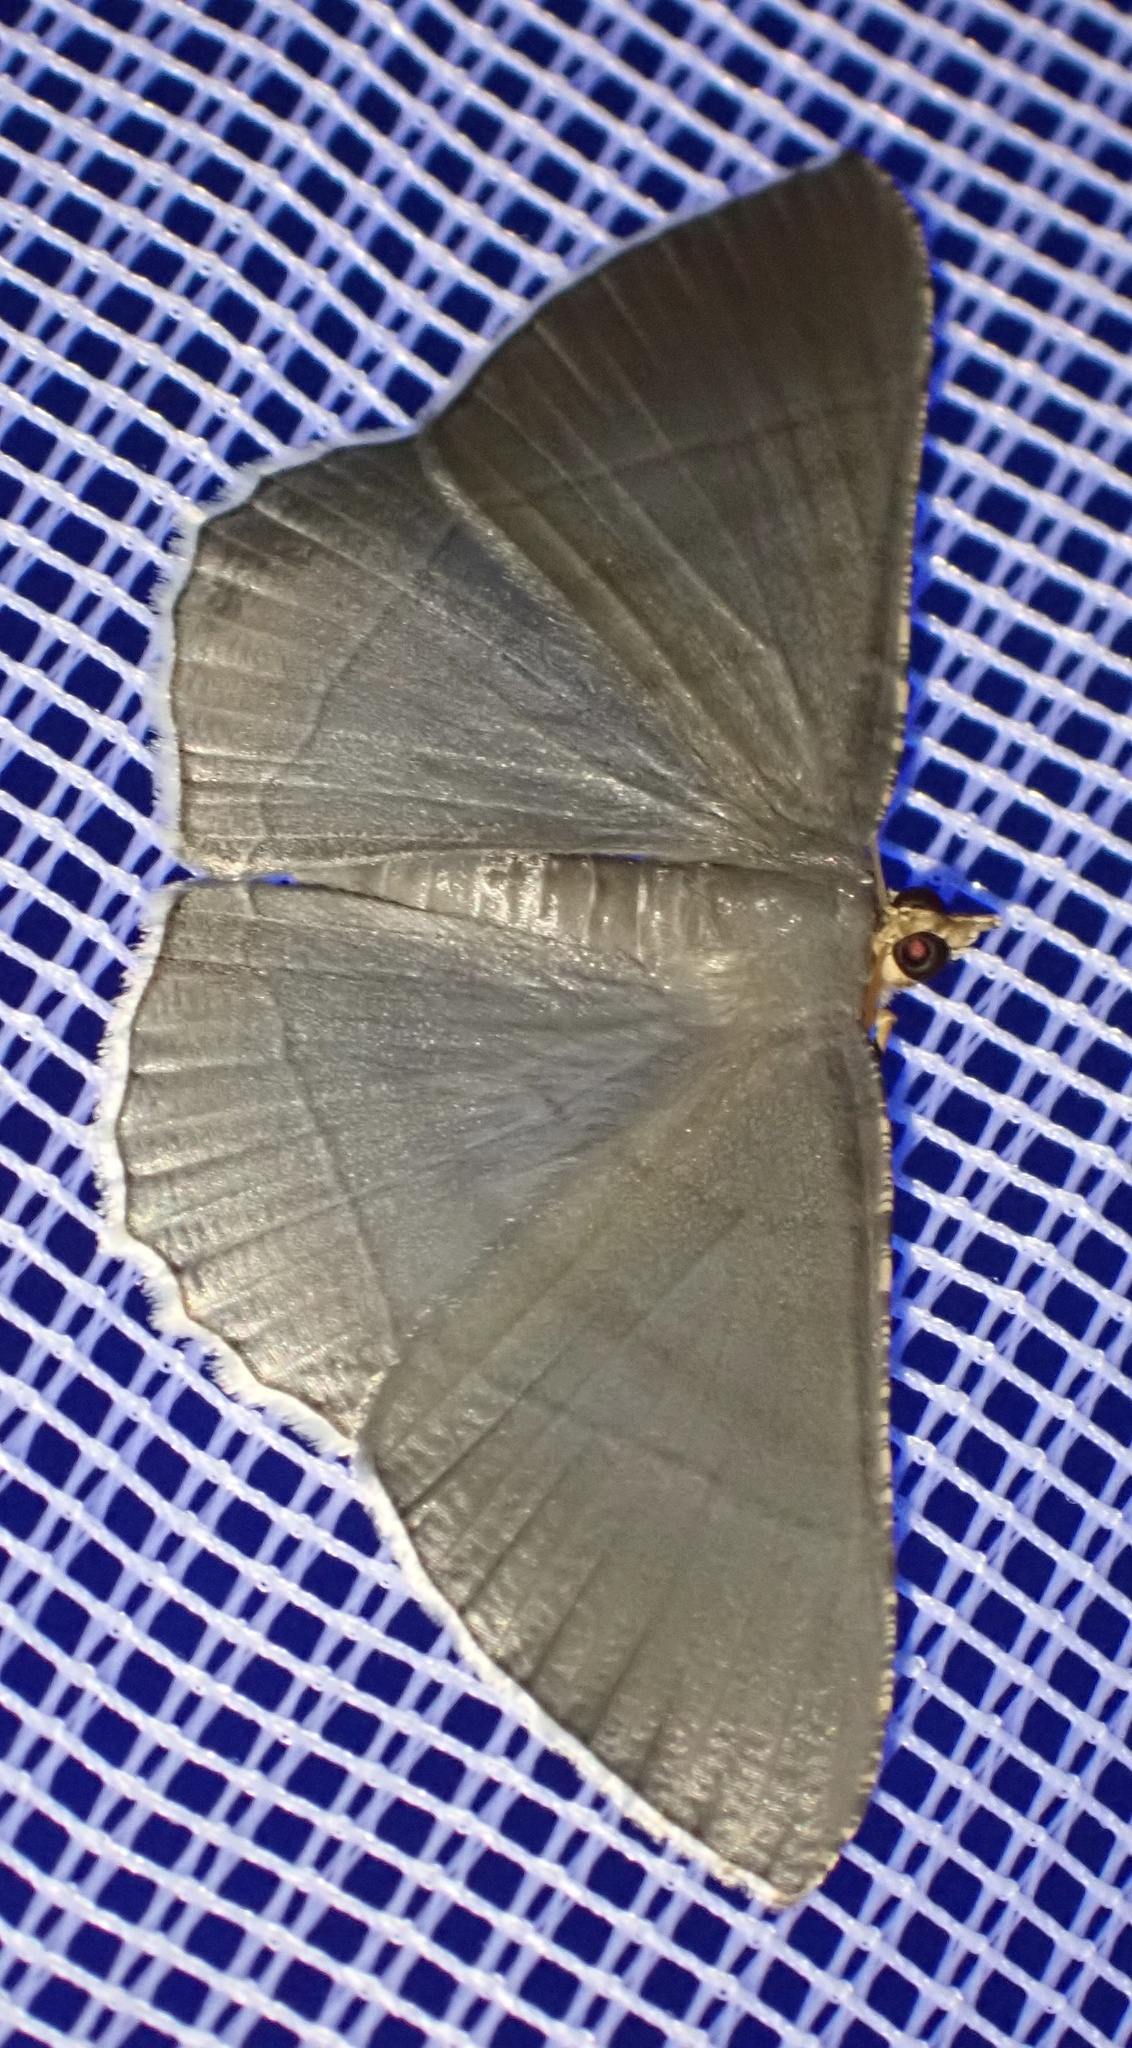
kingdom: Animalia
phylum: Arthropoda
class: Insecta
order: Lepidoptera
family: Geometridae
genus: Bulonga
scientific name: Bulonga griseosericea
